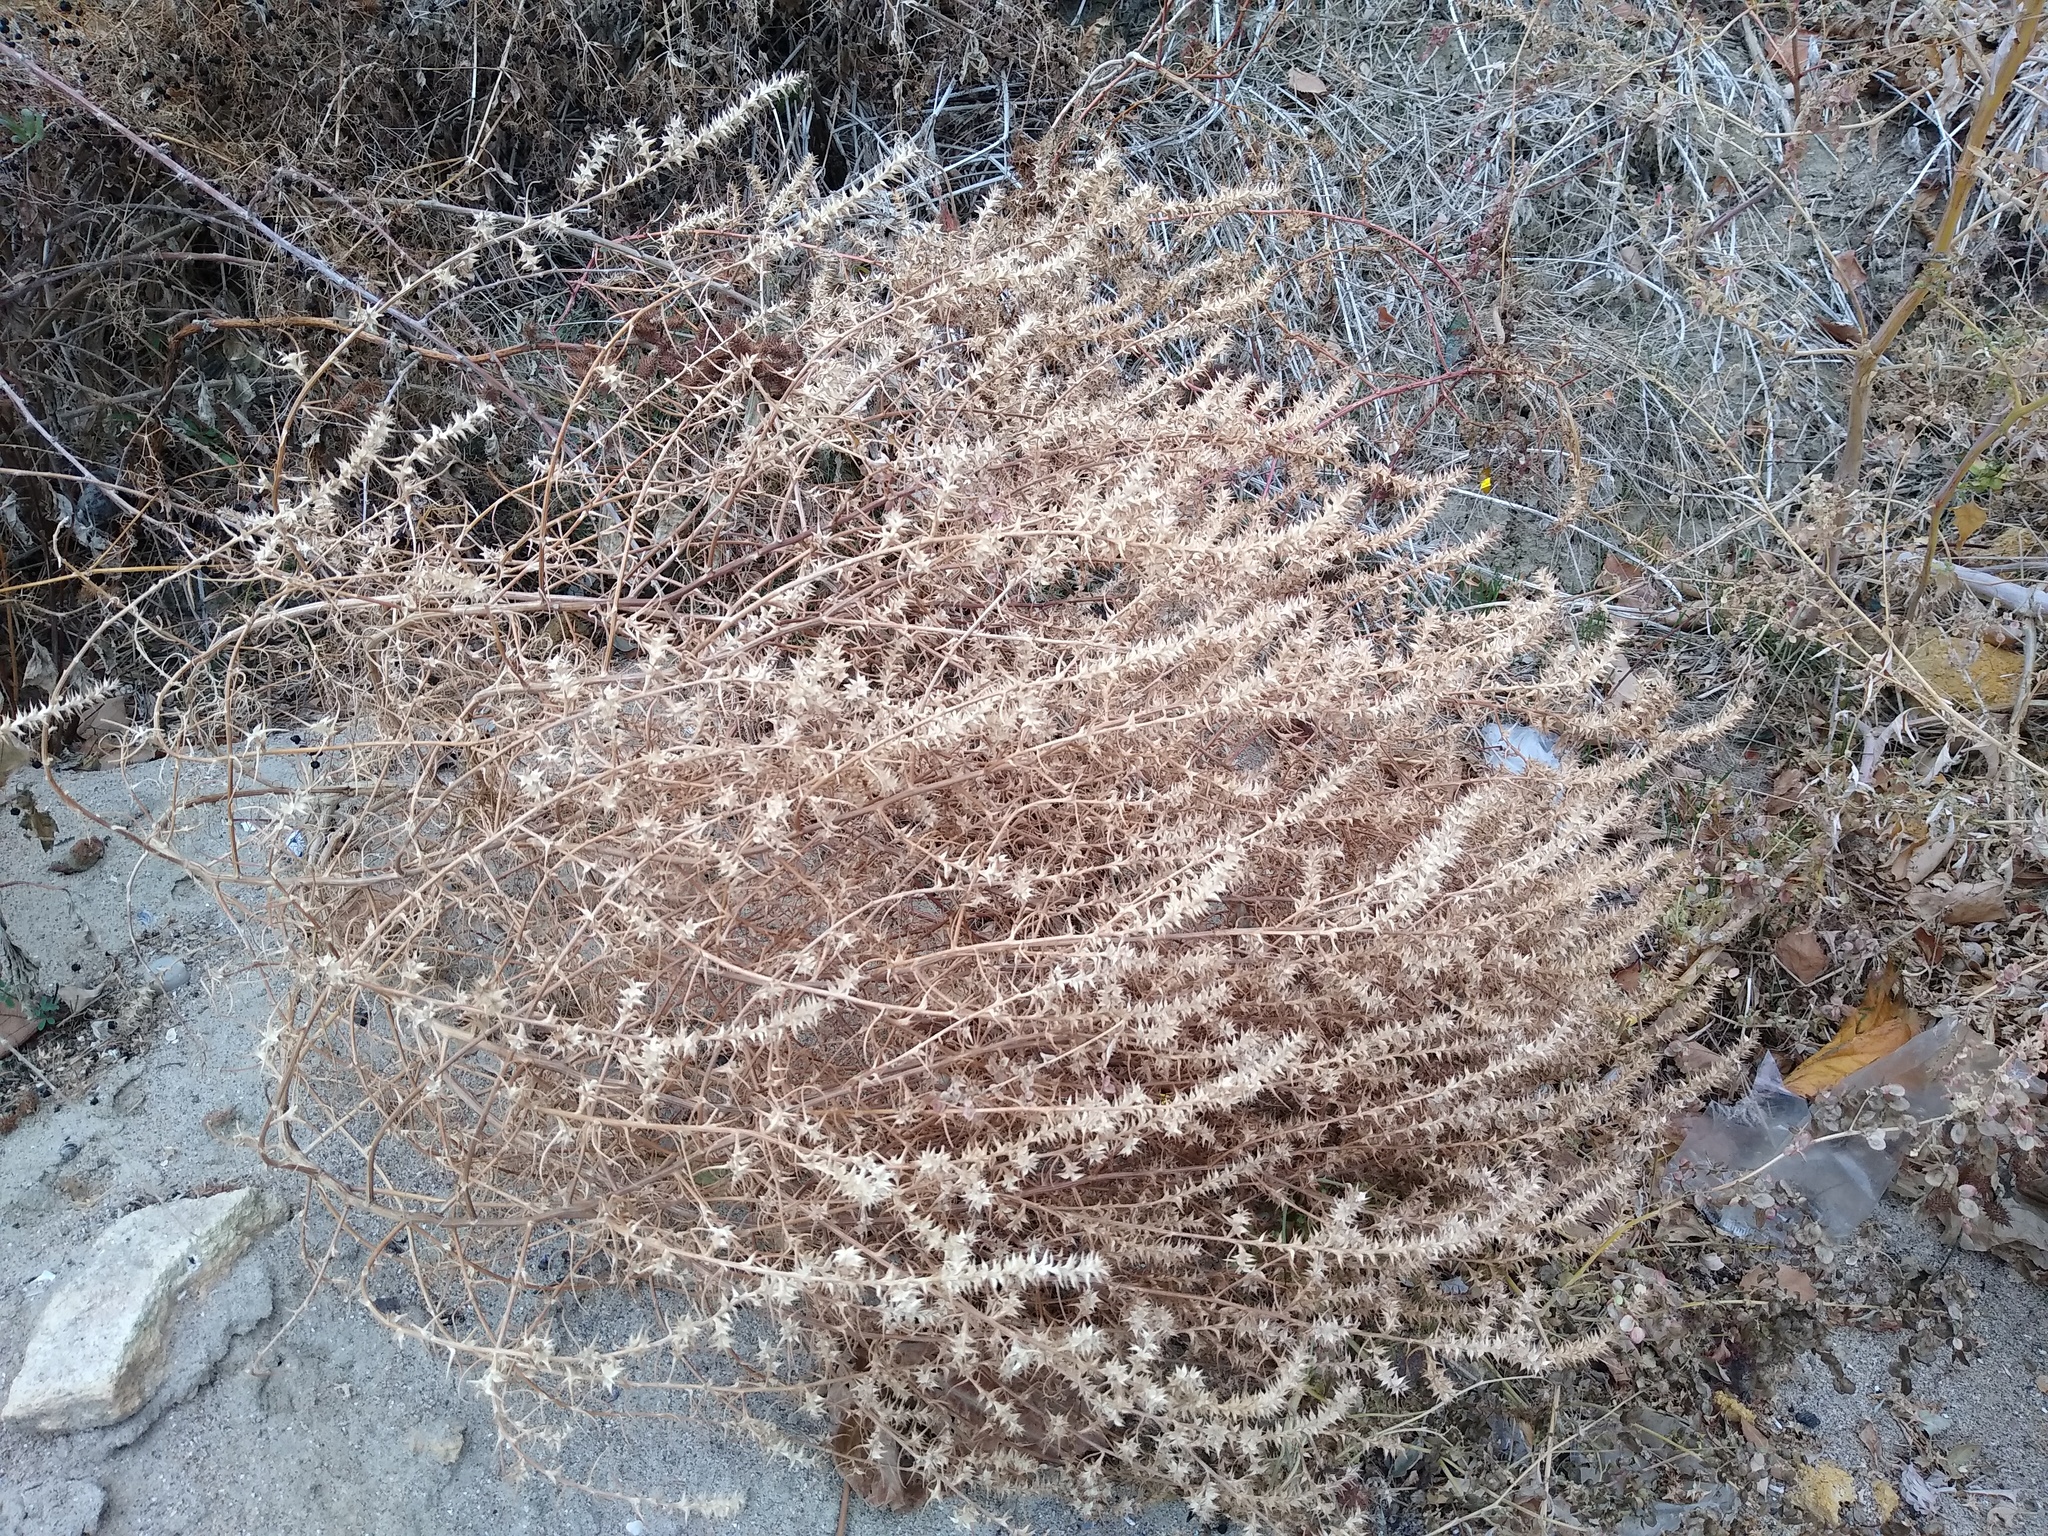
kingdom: Plantae
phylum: Tracheophyta
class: Magnoliopsida
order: Caryophyllales
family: Amaranthaceae
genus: Salsola
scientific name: Salsola tragus
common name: Prickly russian thistle
